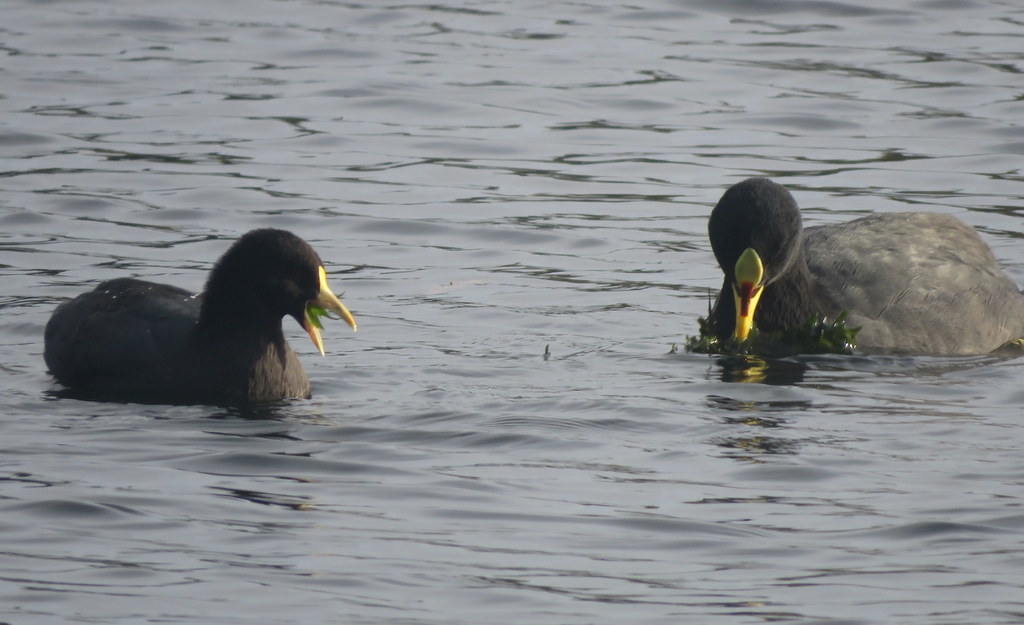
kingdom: Animalia
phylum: Chordata
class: Aves
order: Gruiformes
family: Rallidae
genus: Fulica
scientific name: Fulica armillata
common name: Red-gartered coot
